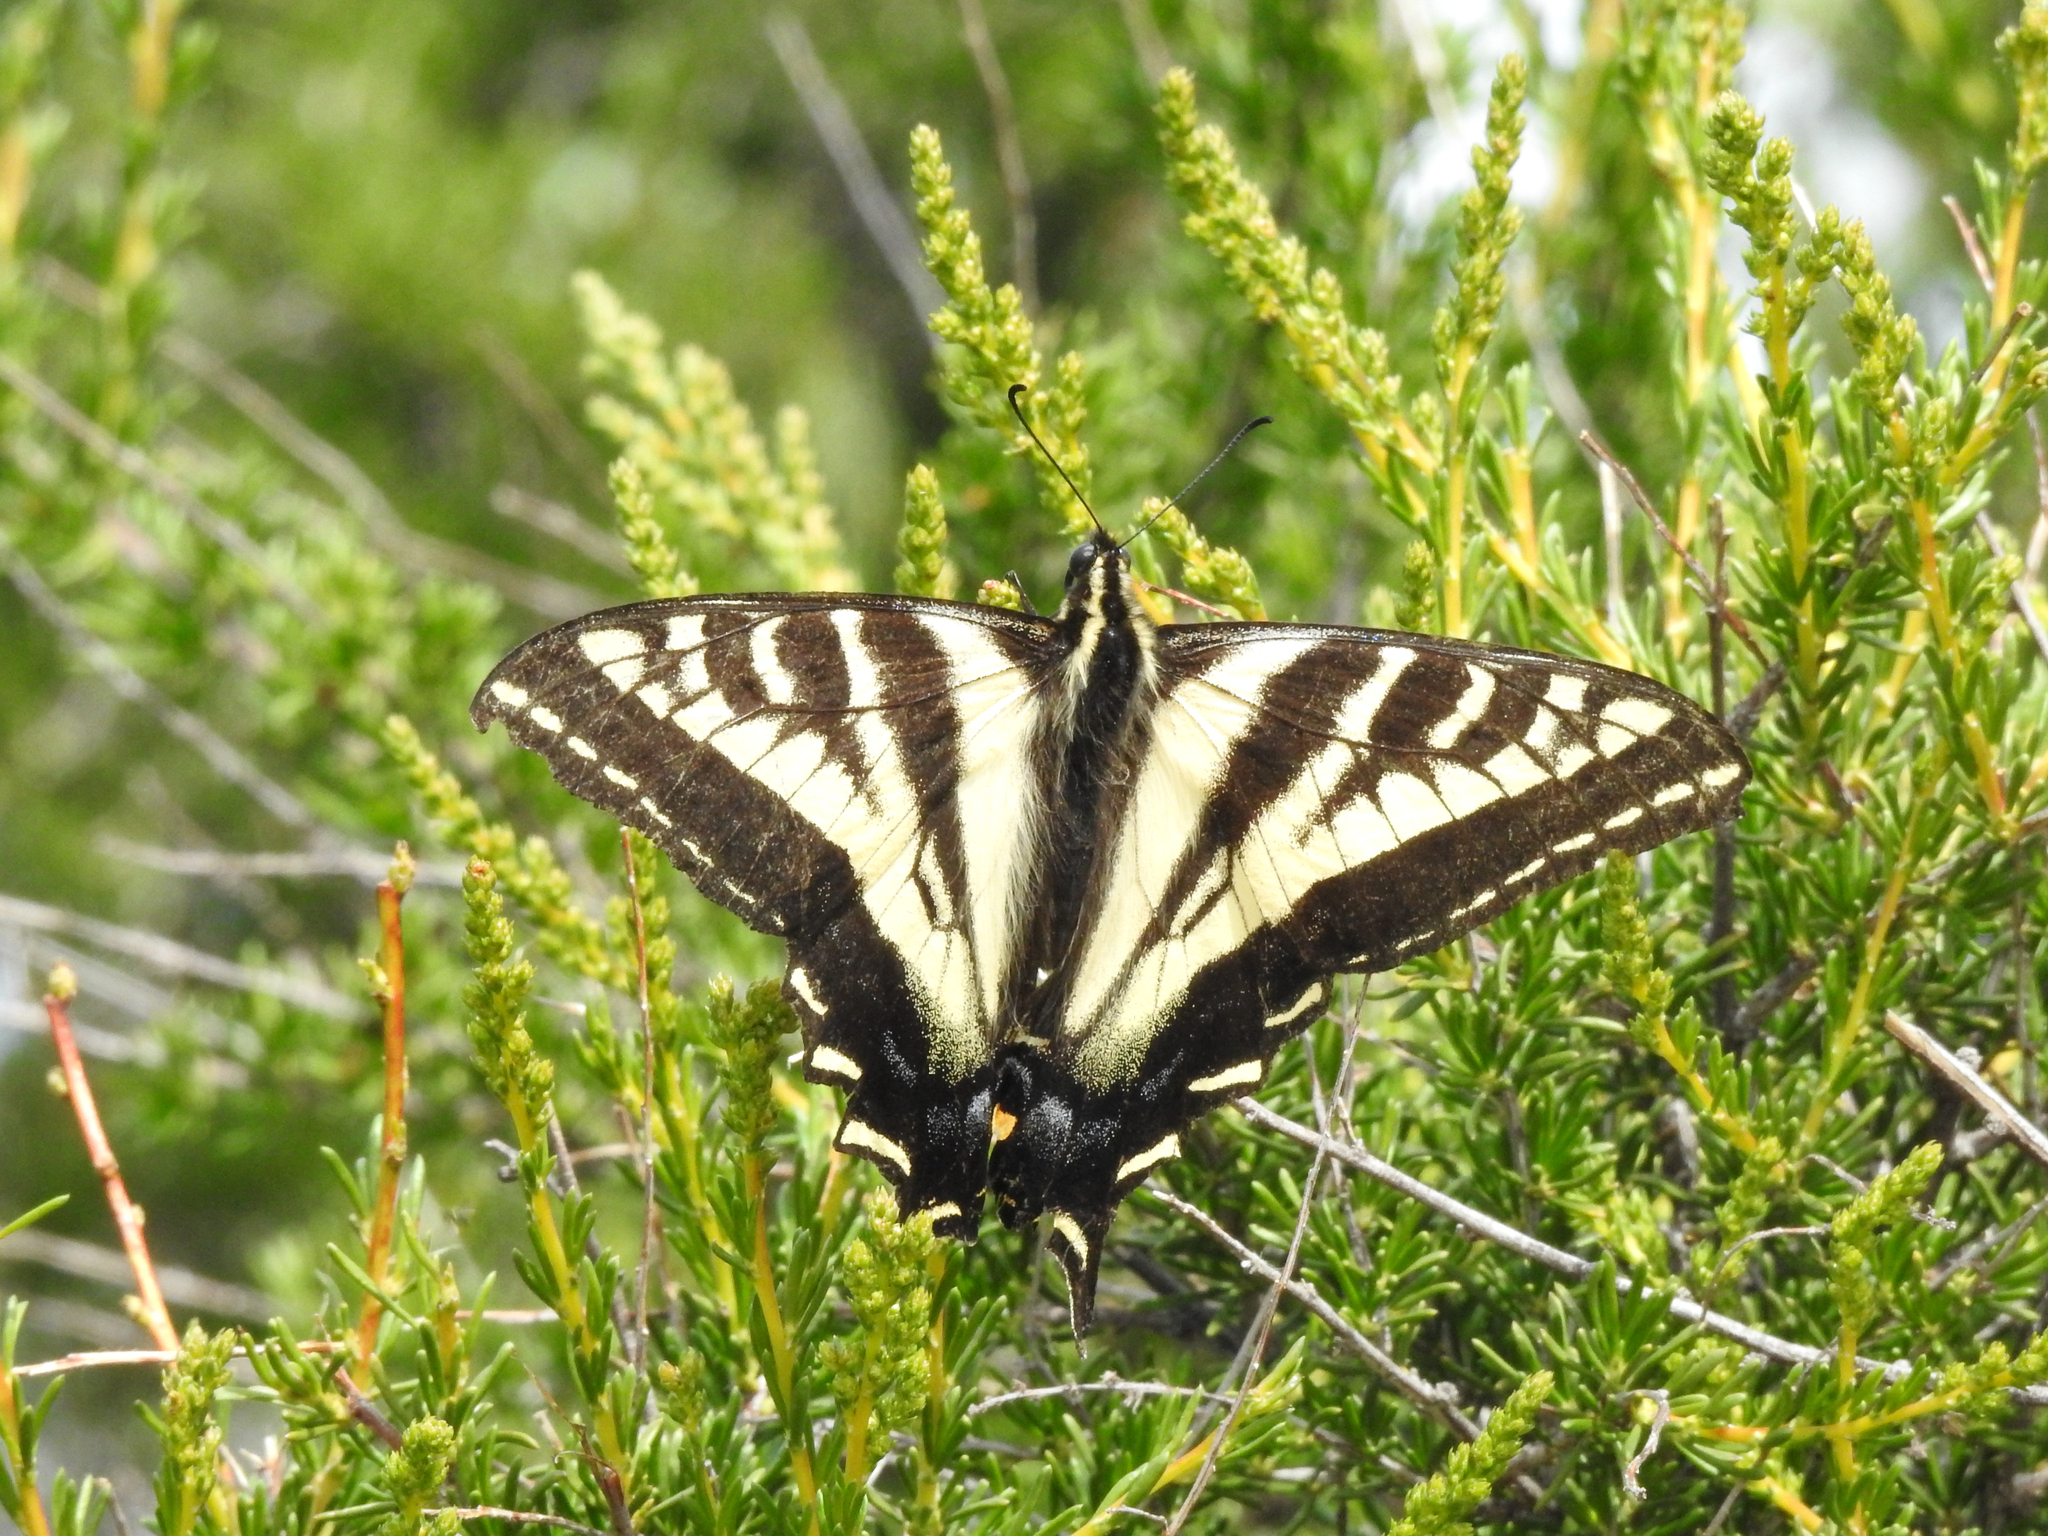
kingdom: Animalia
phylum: Arthropoda
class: Insecta
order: Lepidoptera
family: Papilionidae
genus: Papilio
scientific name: Papilio eurymedon
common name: Pale tiger swallowtail
